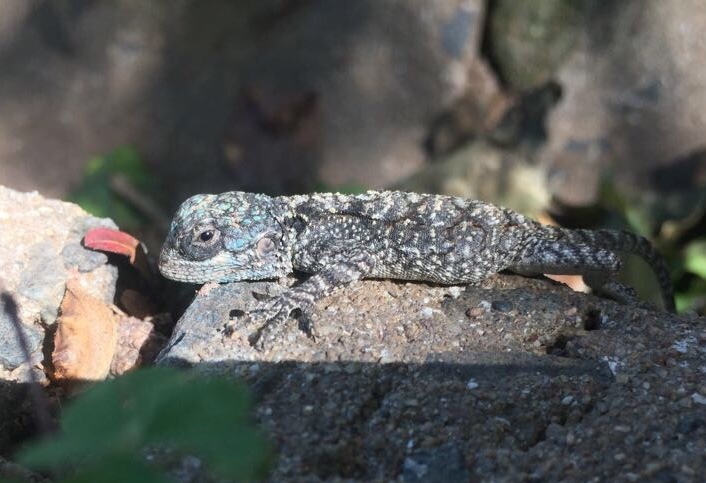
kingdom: Animalia
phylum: Chordata
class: Squamata
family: Agamidae
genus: Acanthocercus
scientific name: Acanthocercus atricollis
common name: Southern tree agama
